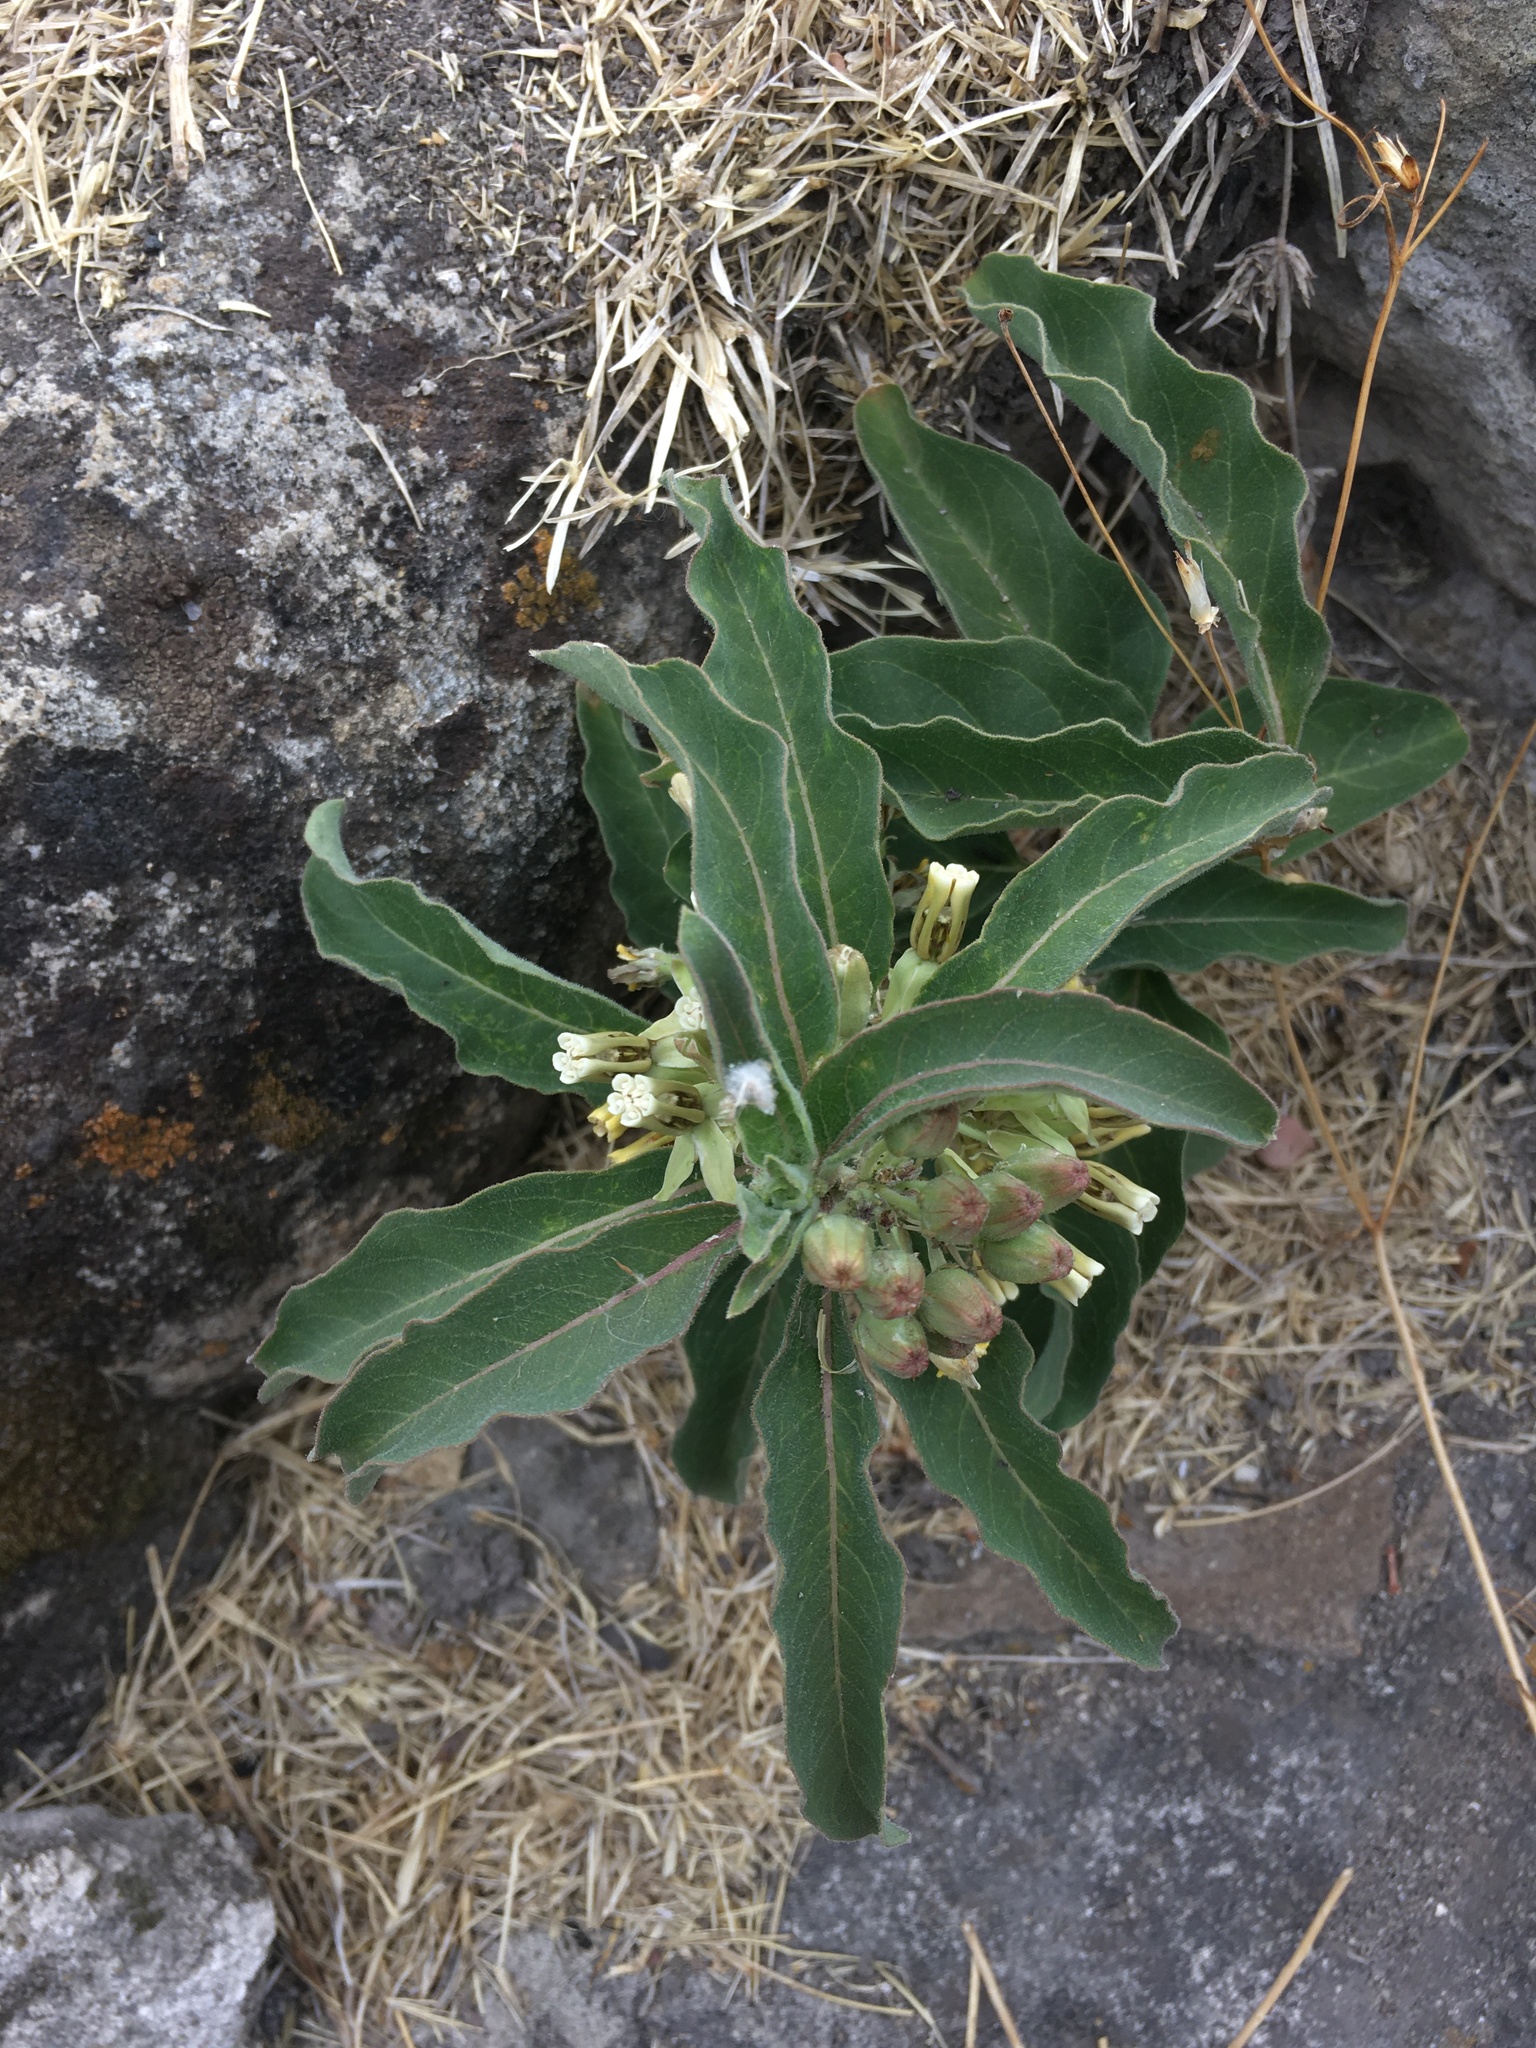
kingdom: Plantae
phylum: Tracheophyta
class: Magnoliopsida
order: Gentianales
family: Apocynaceae
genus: Asclepias
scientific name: Asclepias oenotheroides
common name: Zizotes milkweed
